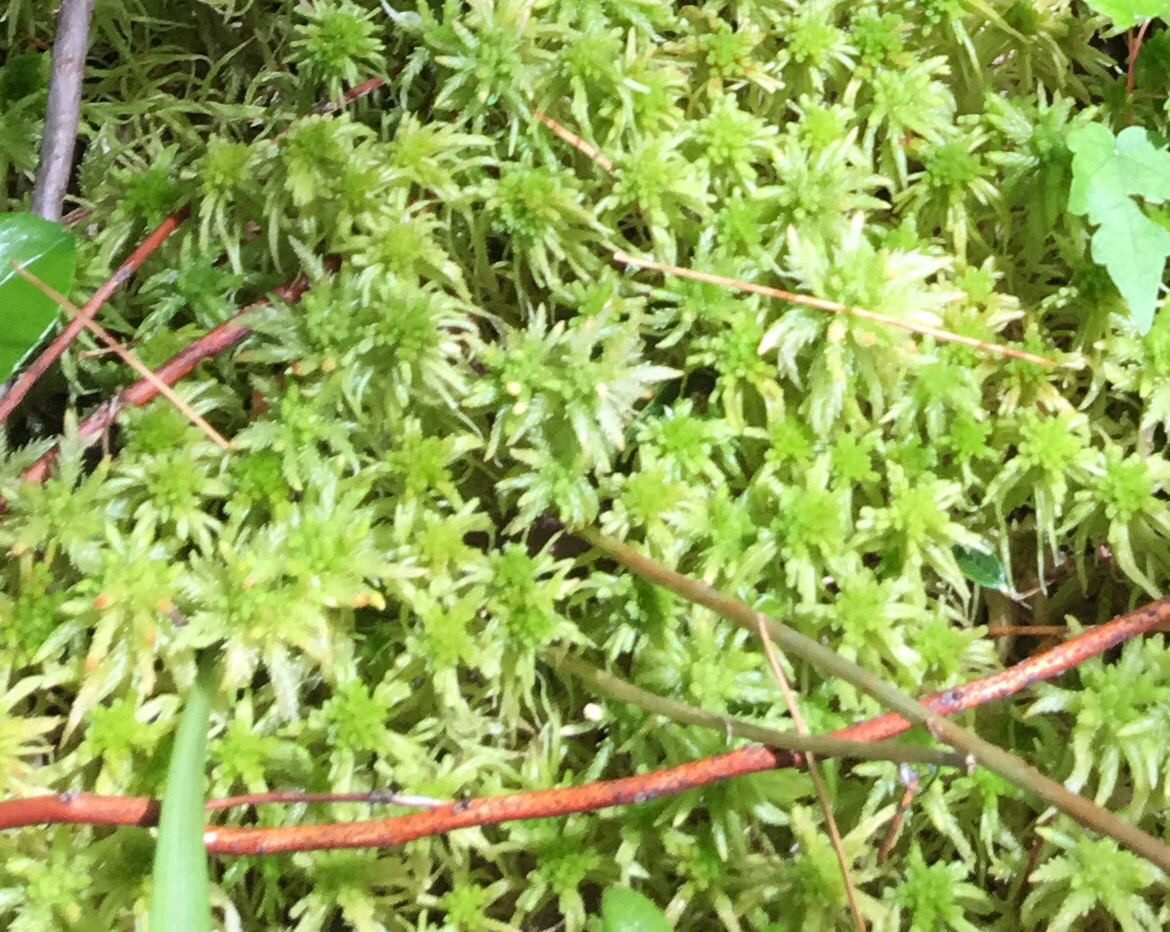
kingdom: Plantae
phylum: Bryophyta
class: Sphagnopsida
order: Sphagnales
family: Sphagnaceae
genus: Sphagnum
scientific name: Sphagnum
